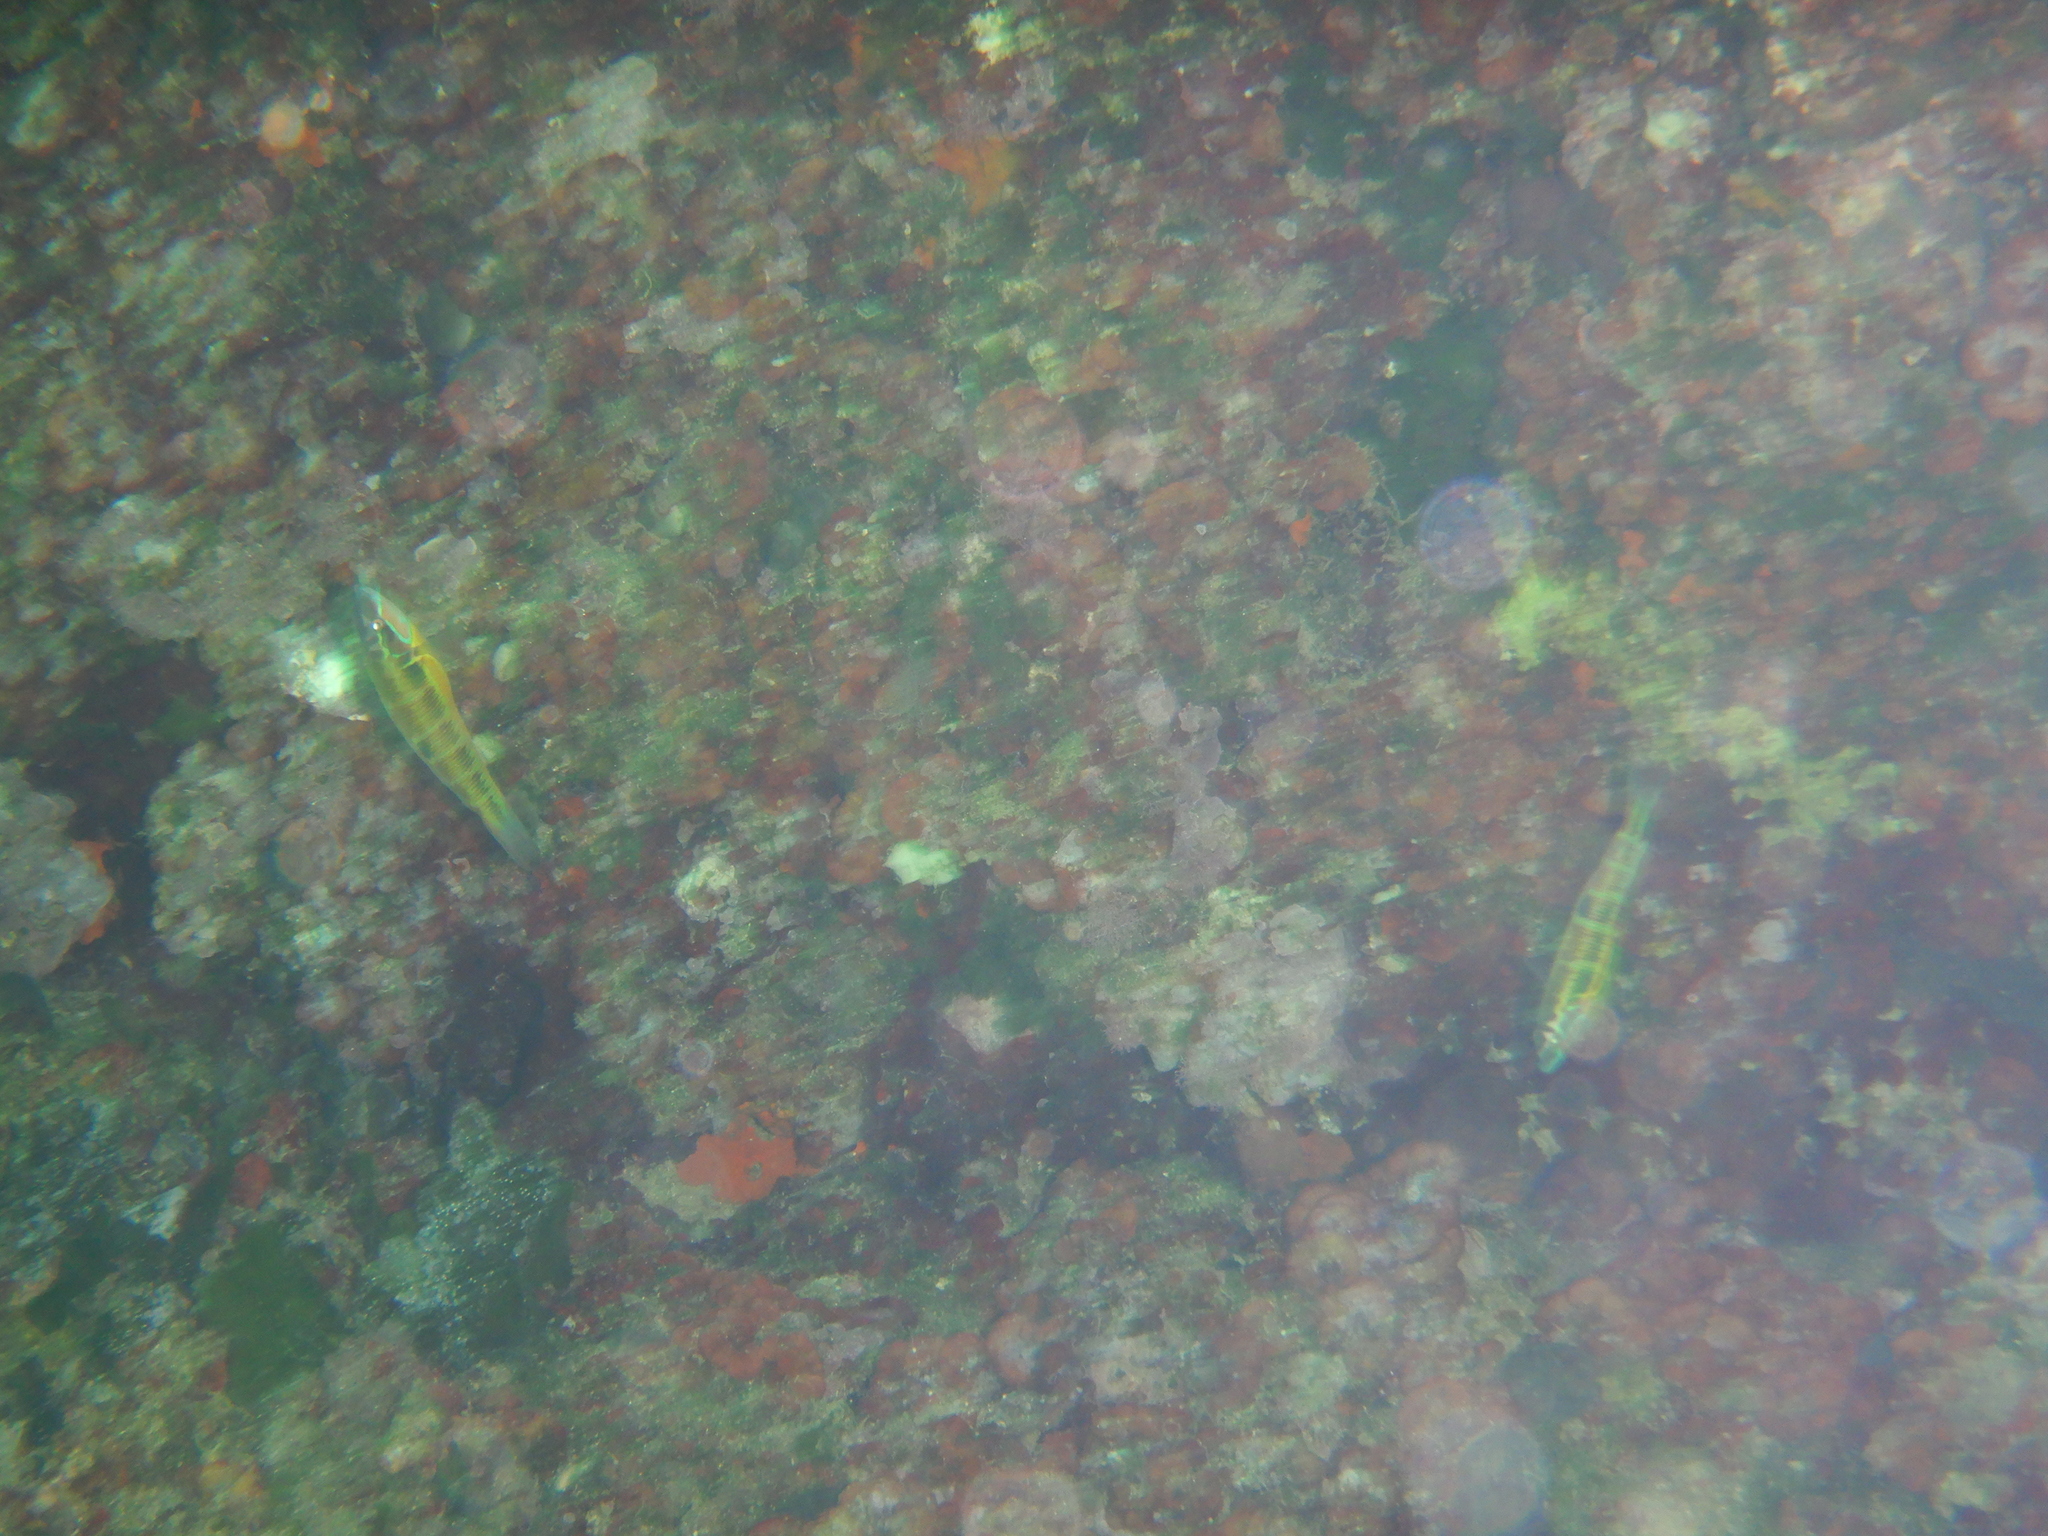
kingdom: Animalia
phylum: Chordata
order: Perciformes
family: Labridae
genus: Thalassoma
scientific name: Thalassoma pavo
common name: Ornate wrasse
